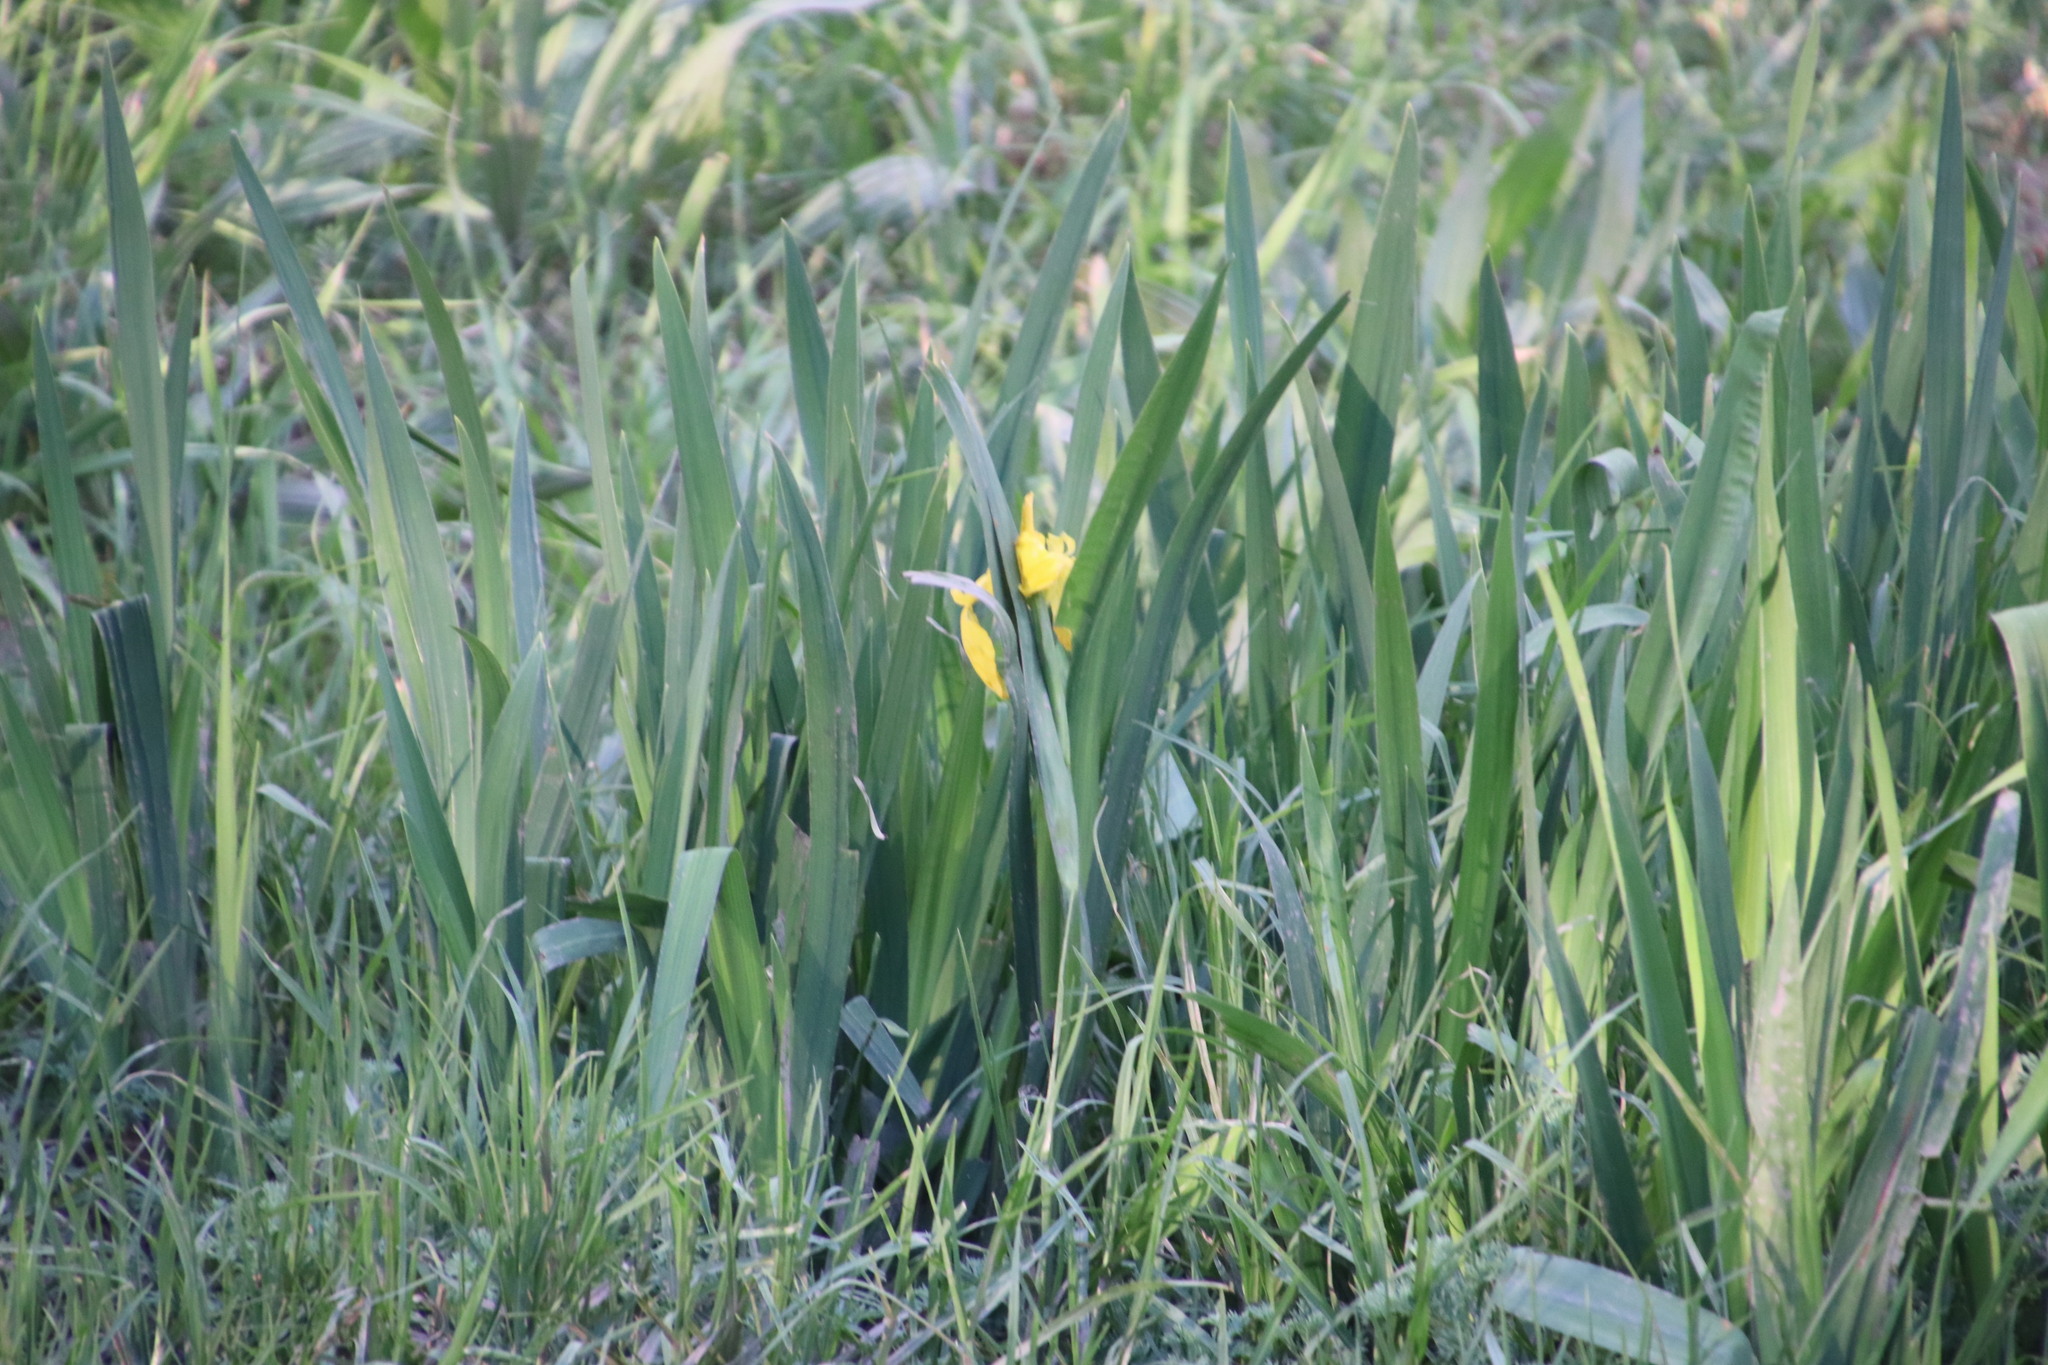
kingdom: Plantae
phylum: Tracheophyta
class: Liliopsida
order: Asparagales
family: Iridaceae
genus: Iris
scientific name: Iris pseudacorus
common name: Yellow flag
